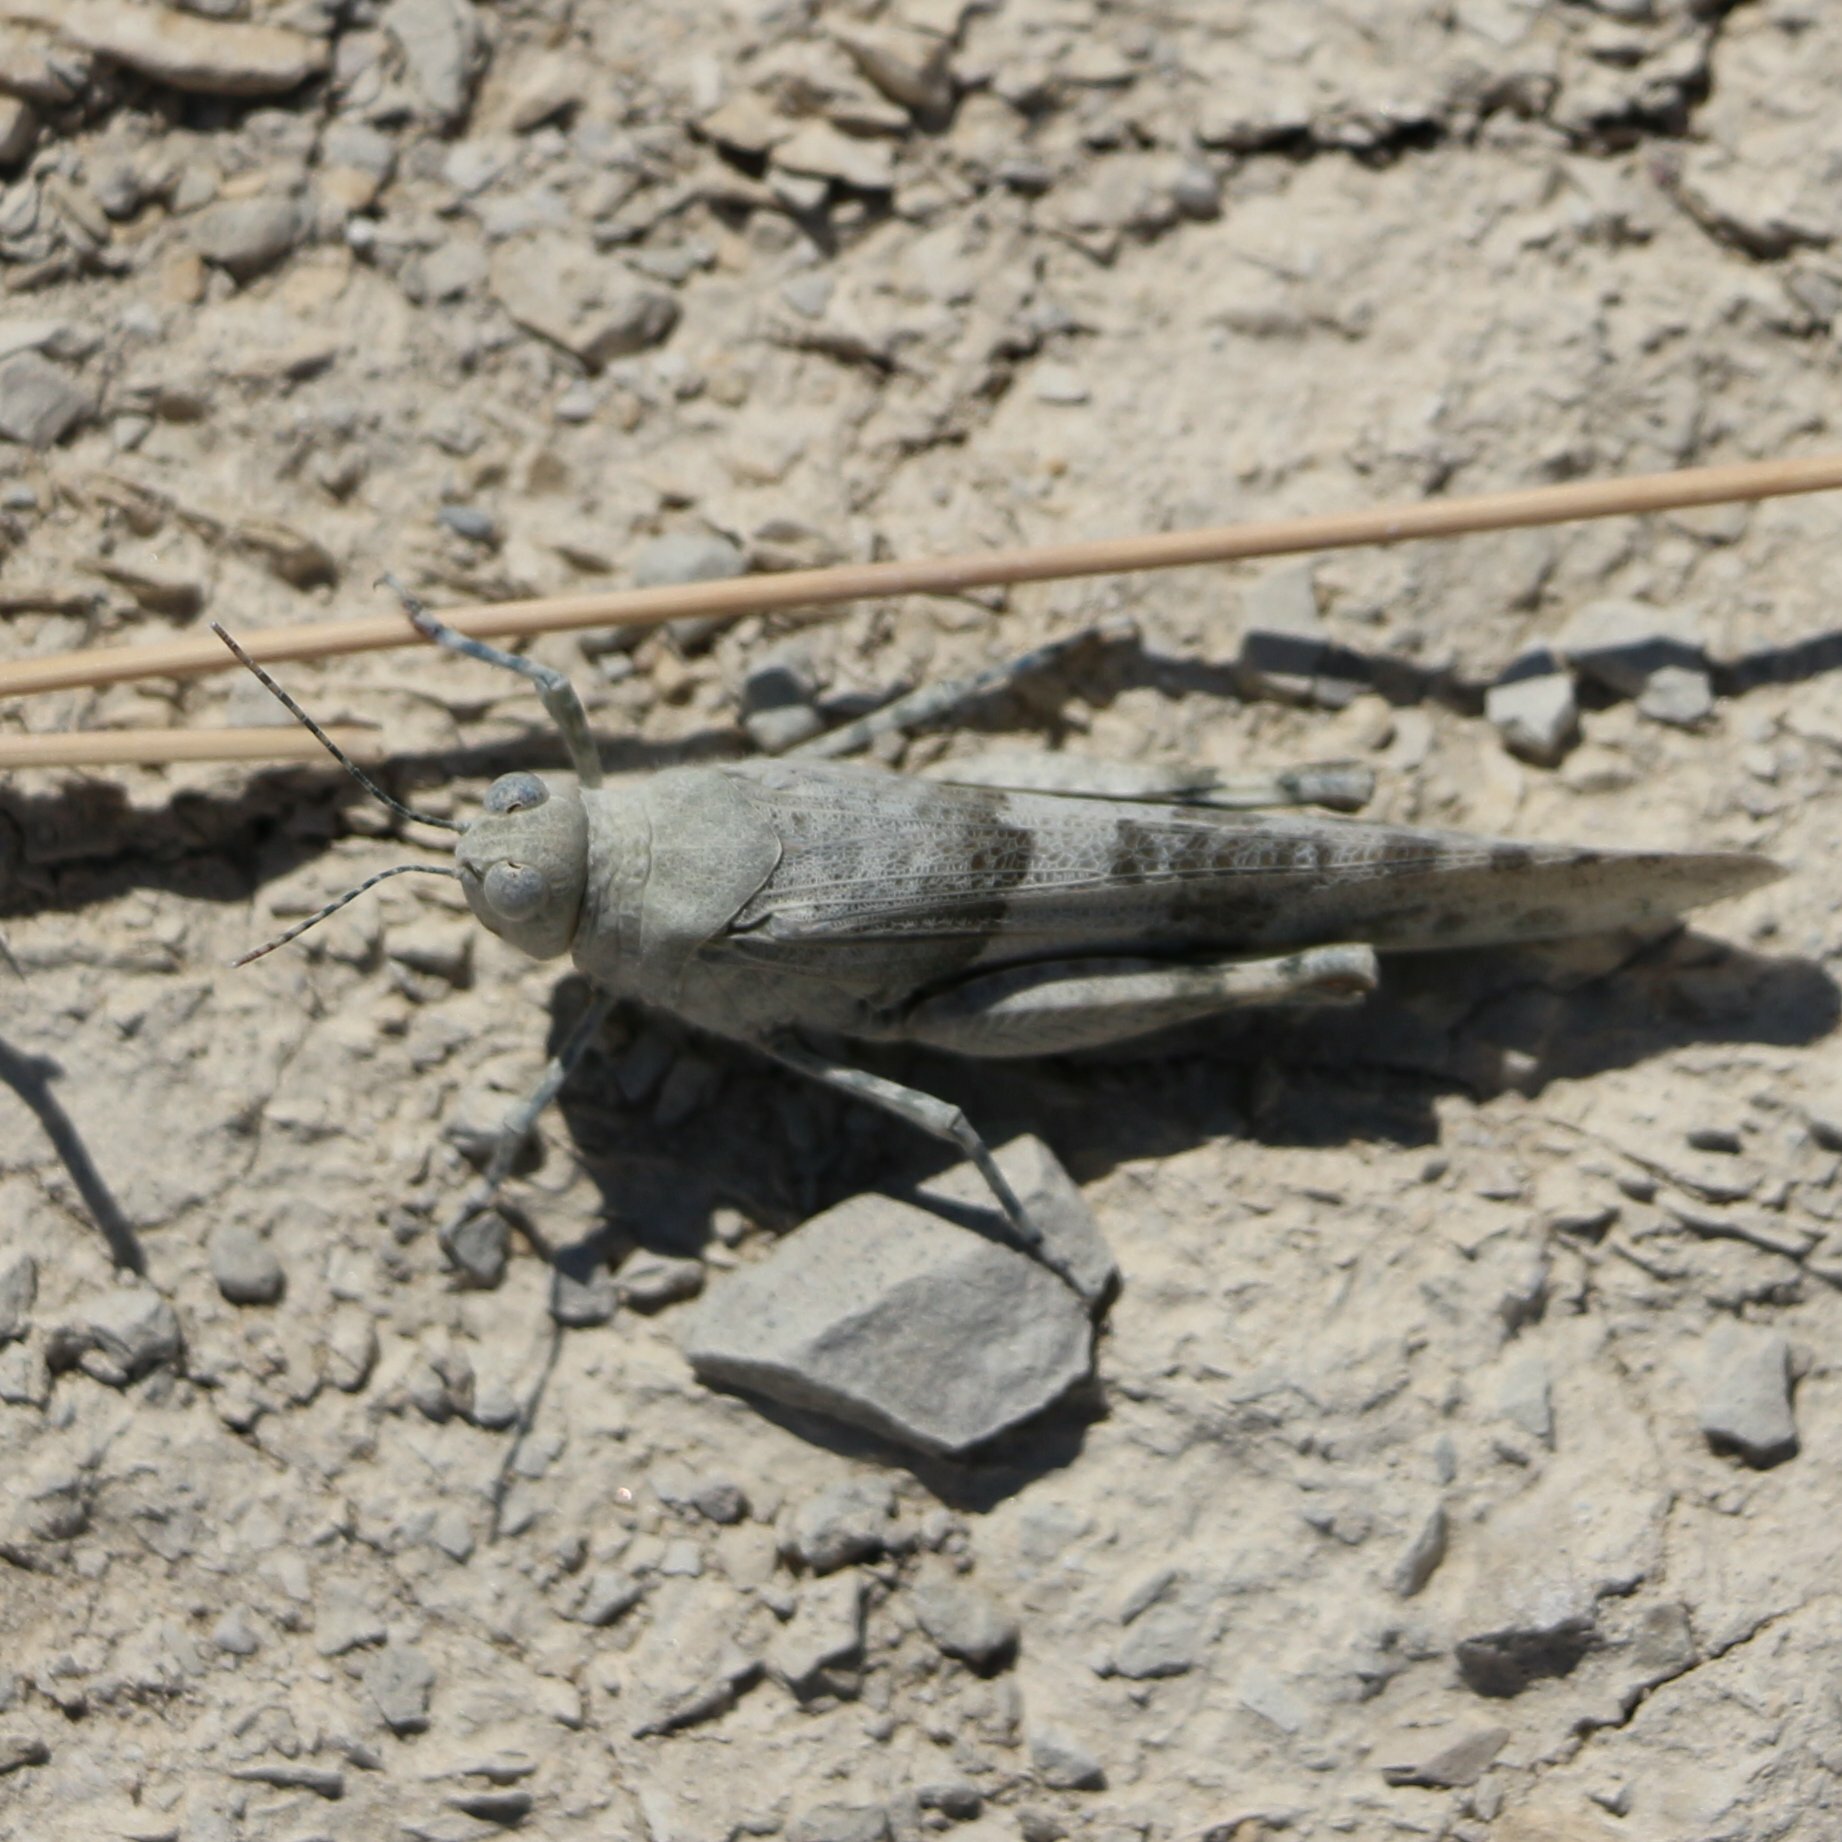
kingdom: Animalia
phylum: Arthropoda
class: Insecta
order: Orthoptera
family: Acrididae
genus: Sphingonotus
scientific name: Sphingonotus caerulans
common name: Blue-winged locust
